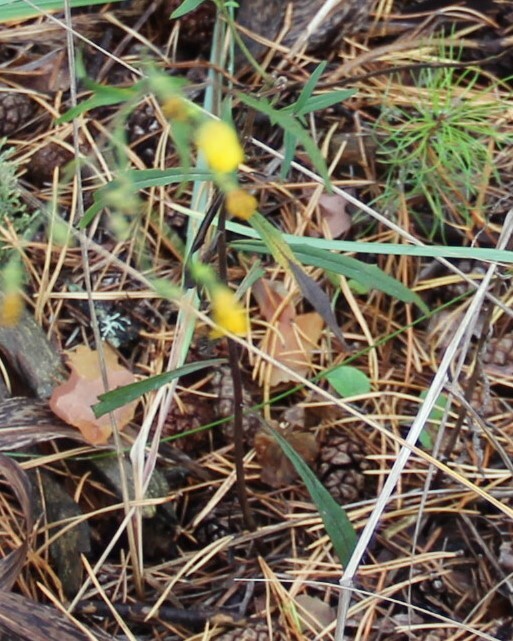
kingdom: Plantae
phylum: Tracheophyta
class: Magnoliopsida
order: Asterales
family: Asteraceae
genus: Hieracium
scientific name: Hieracium umbellatum
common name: Northern hawkweed
